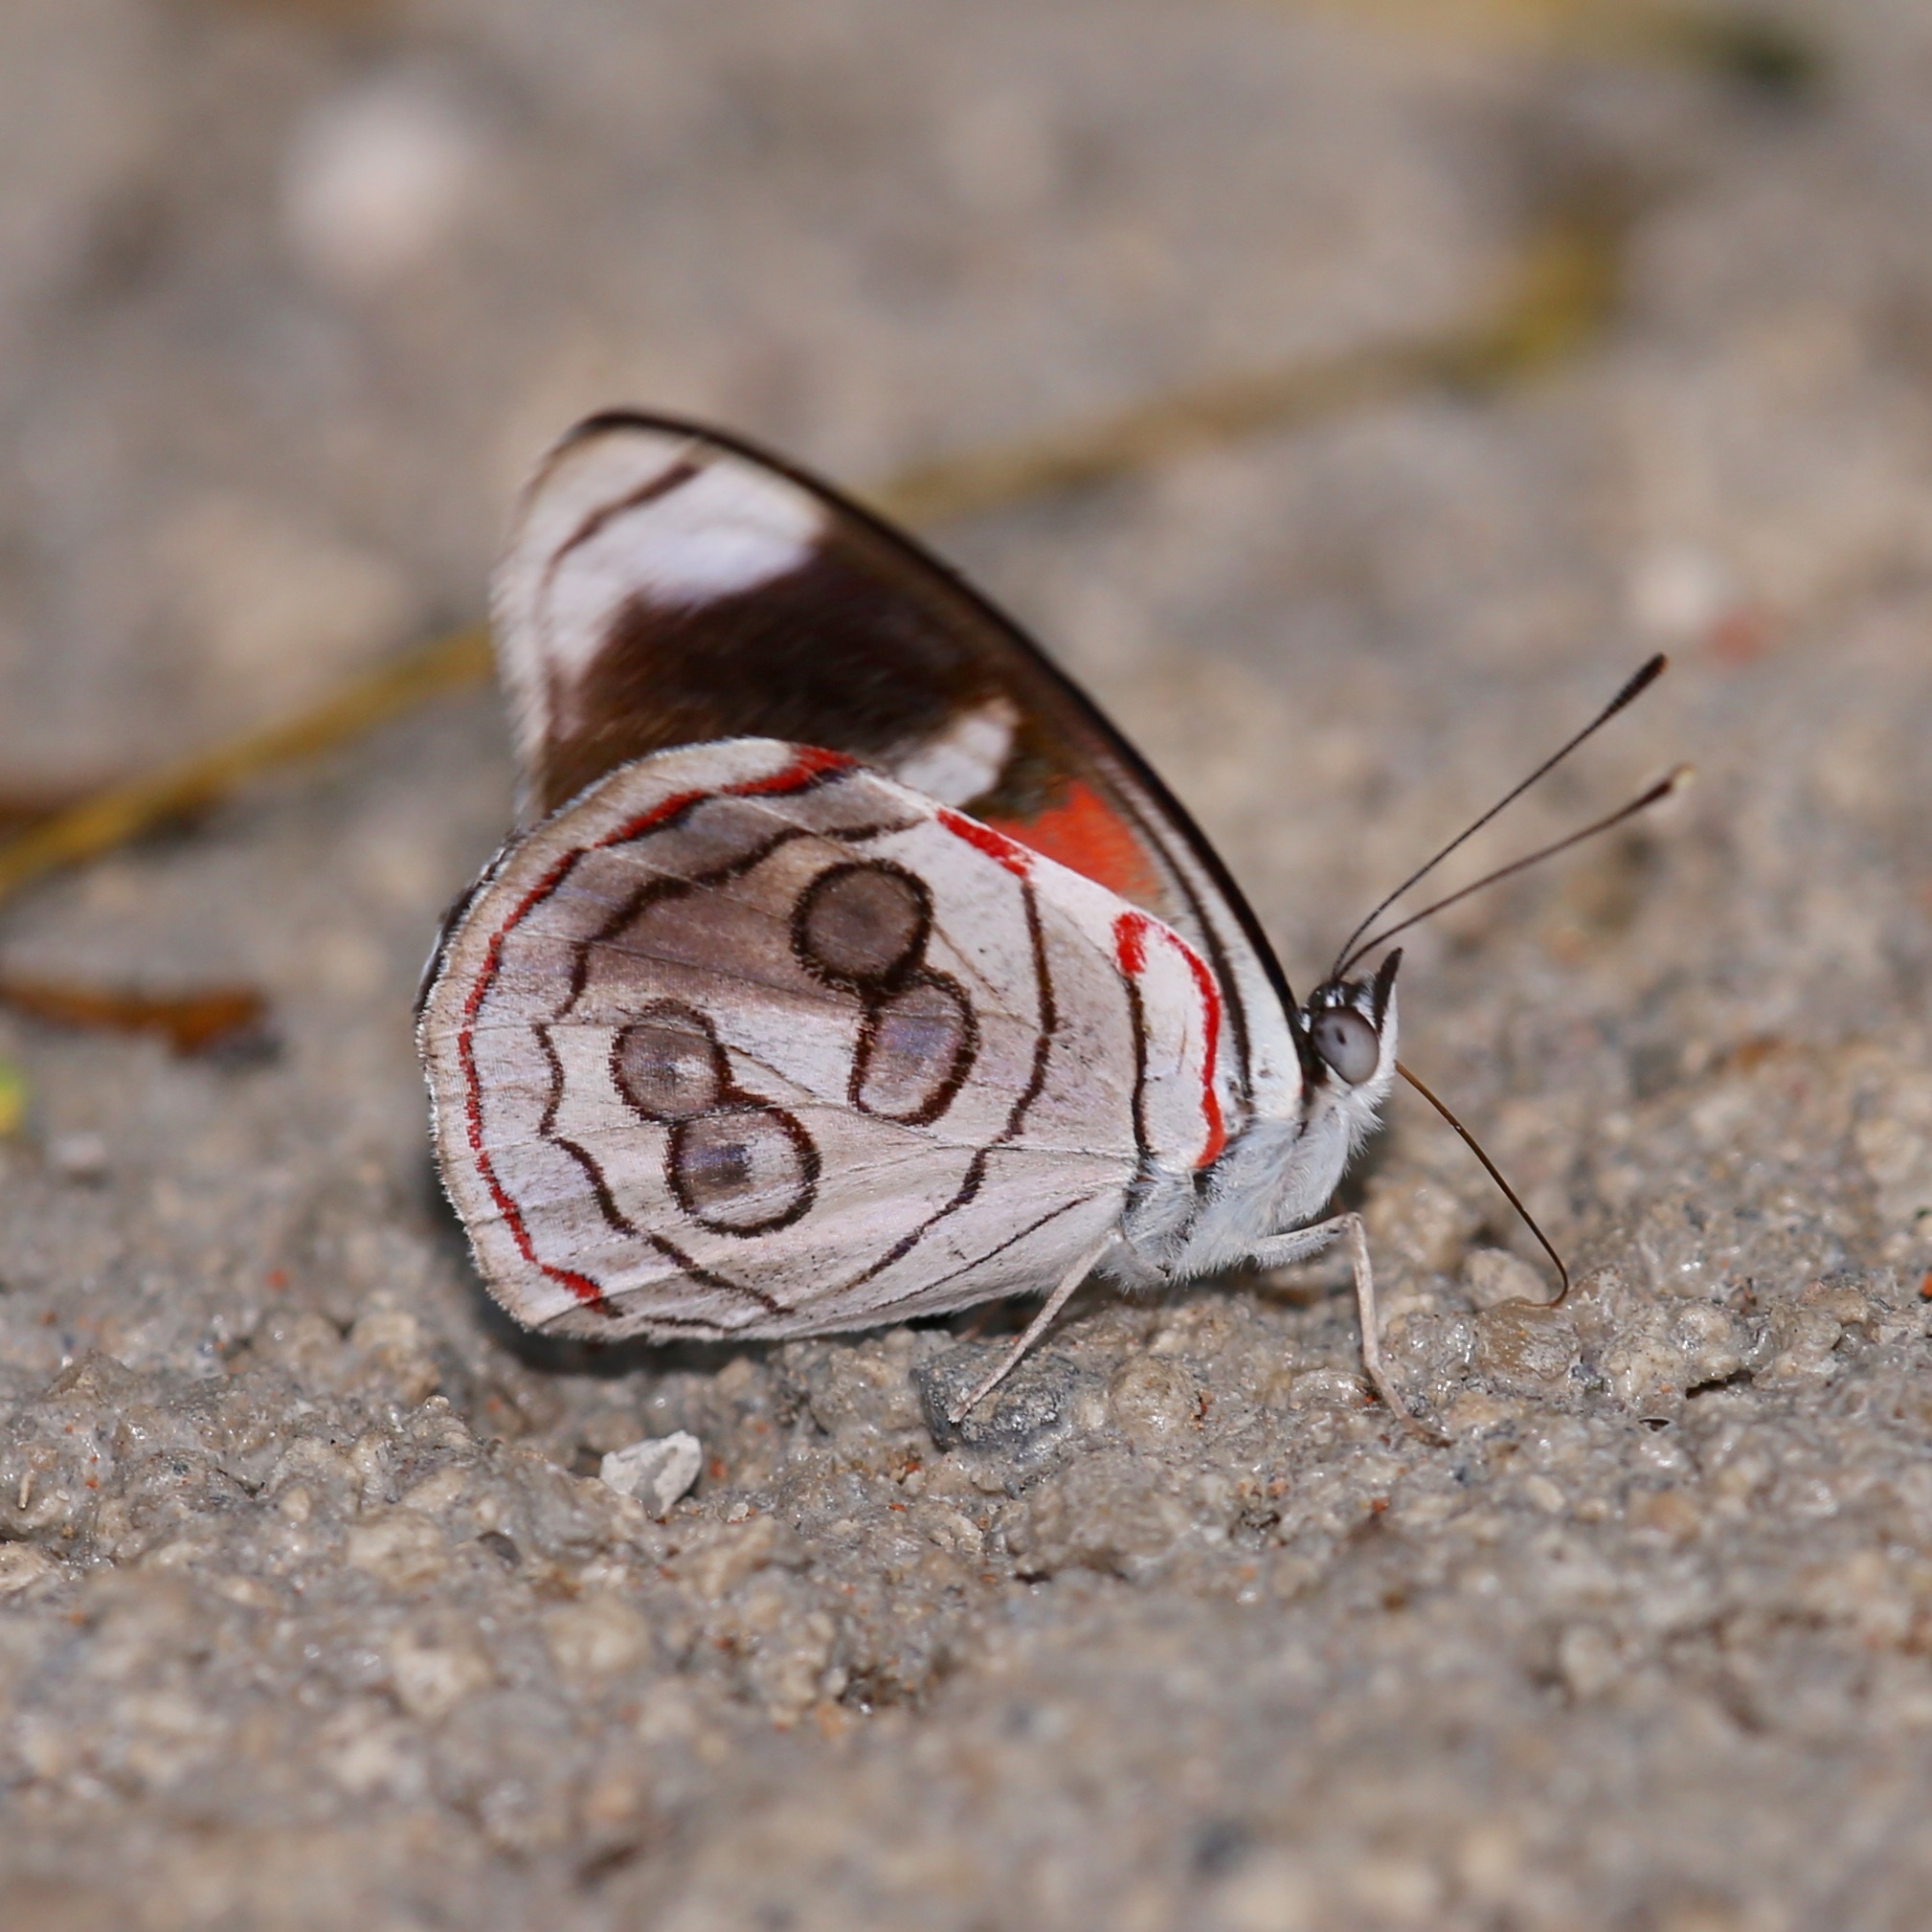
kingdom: Animalia
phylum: Arthropoda
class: Insecta
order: Lepidoptera
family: Nymphalidae
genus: Diaethria
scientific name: Diaethria asteria
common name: West-mexican eighty-eight
